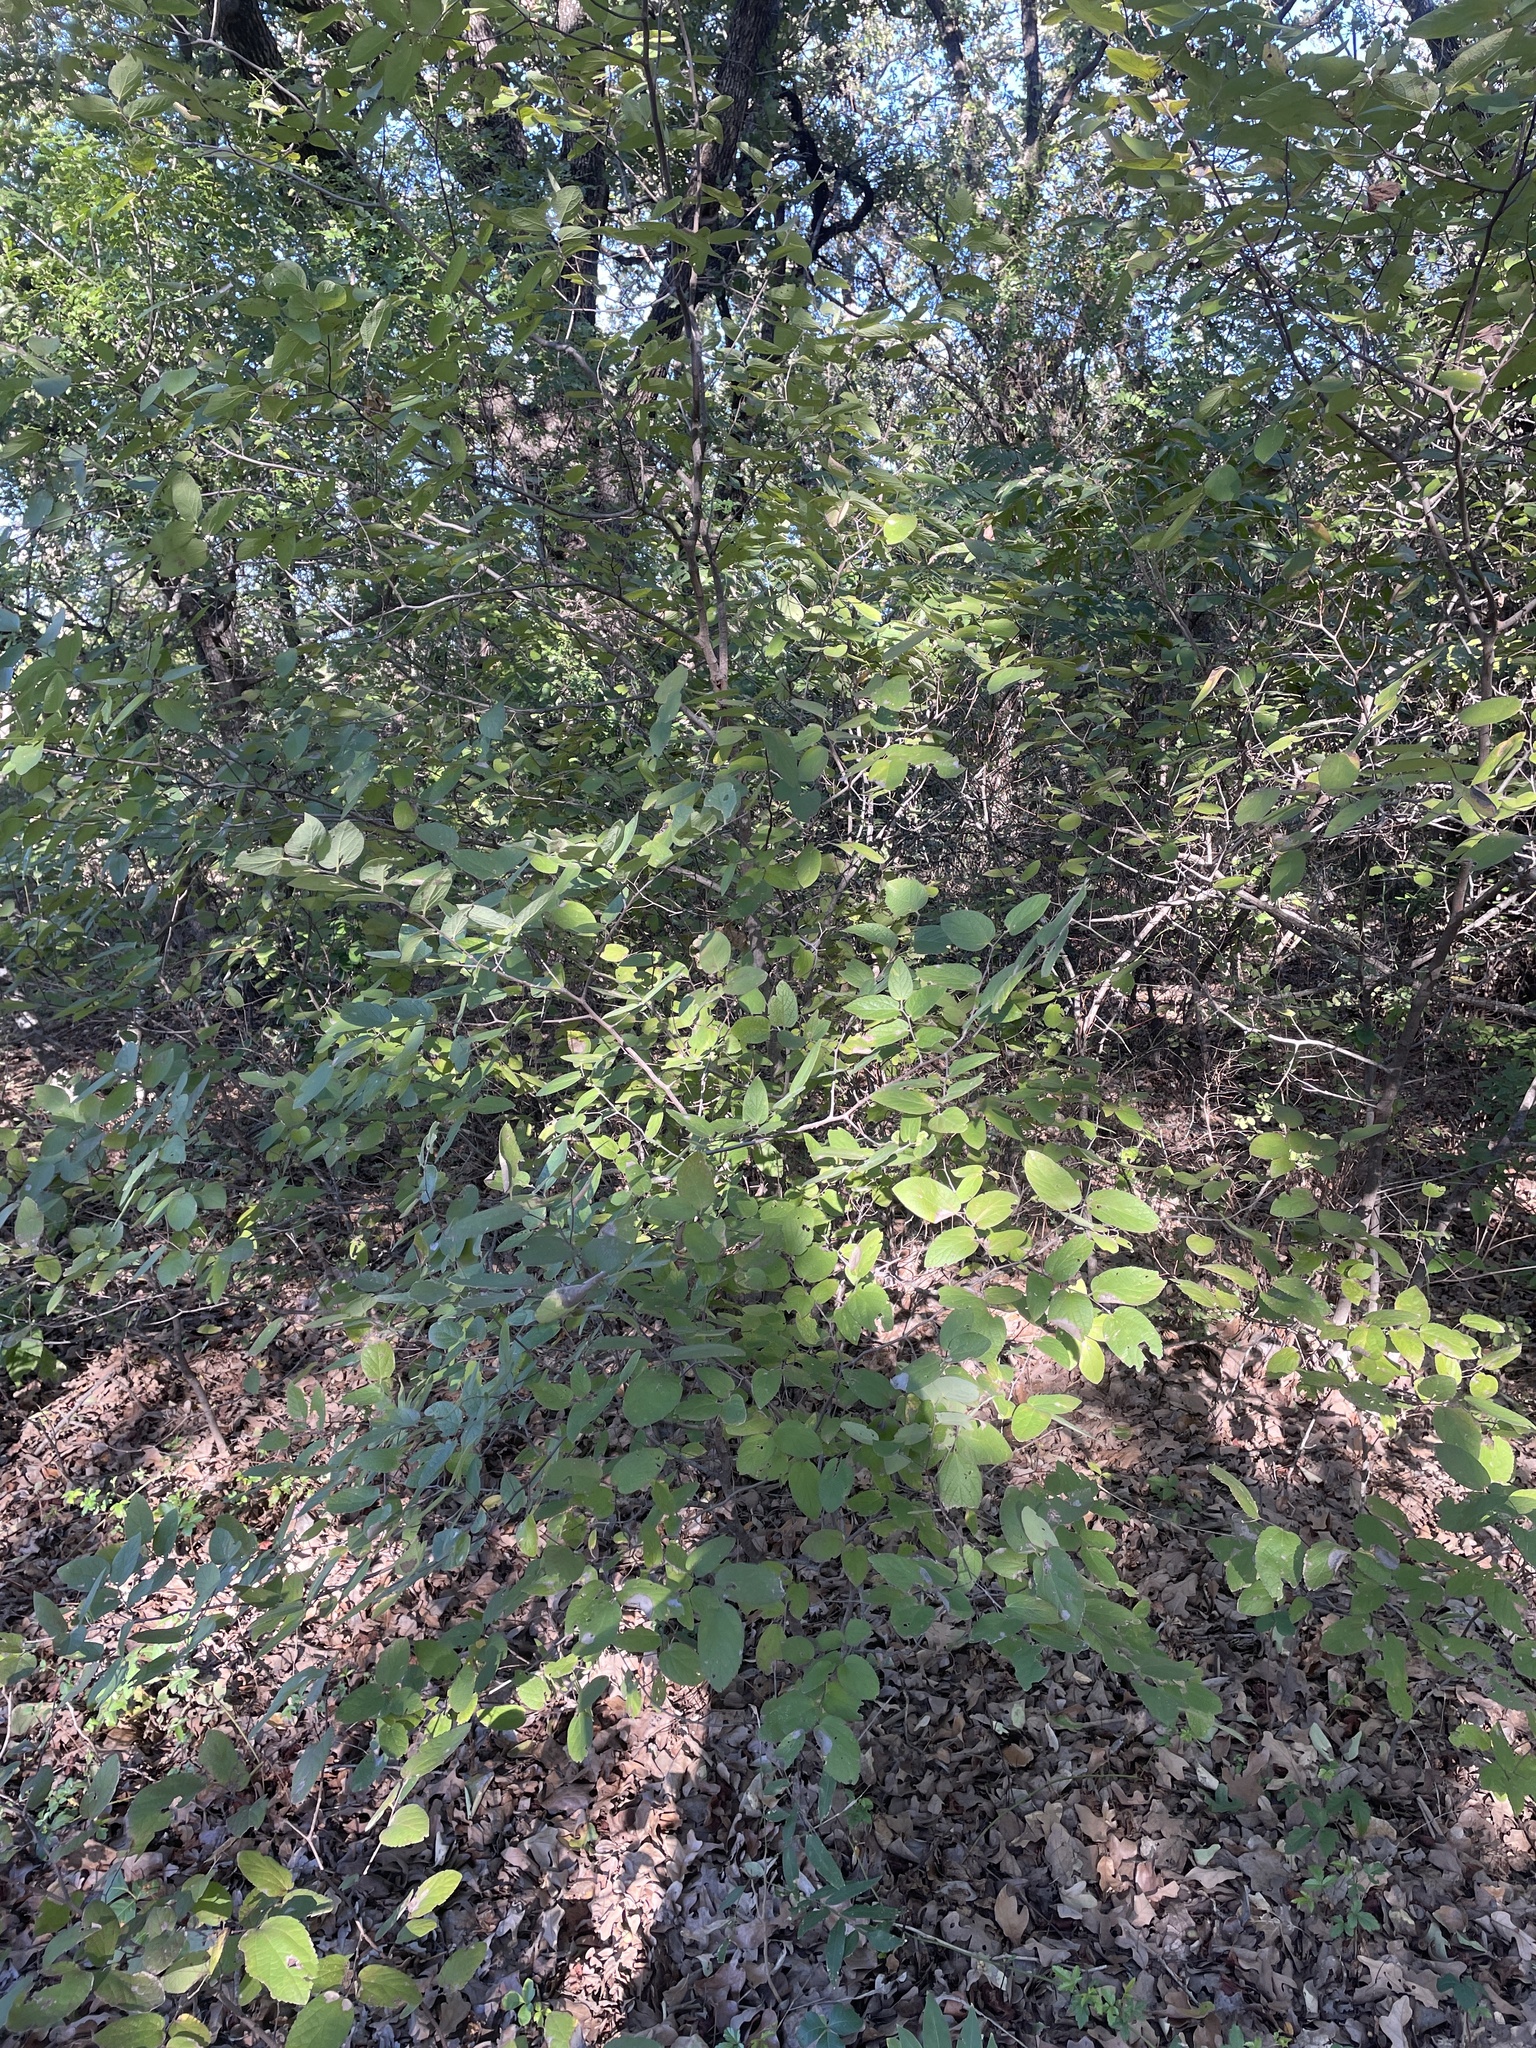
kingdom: Plantae
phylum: Tracheophyta
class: Magnoliopsida
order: Rosales
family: Cannabaceae
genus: Celtis
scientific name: Celtis reticulata
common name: Netleaf hackberry
